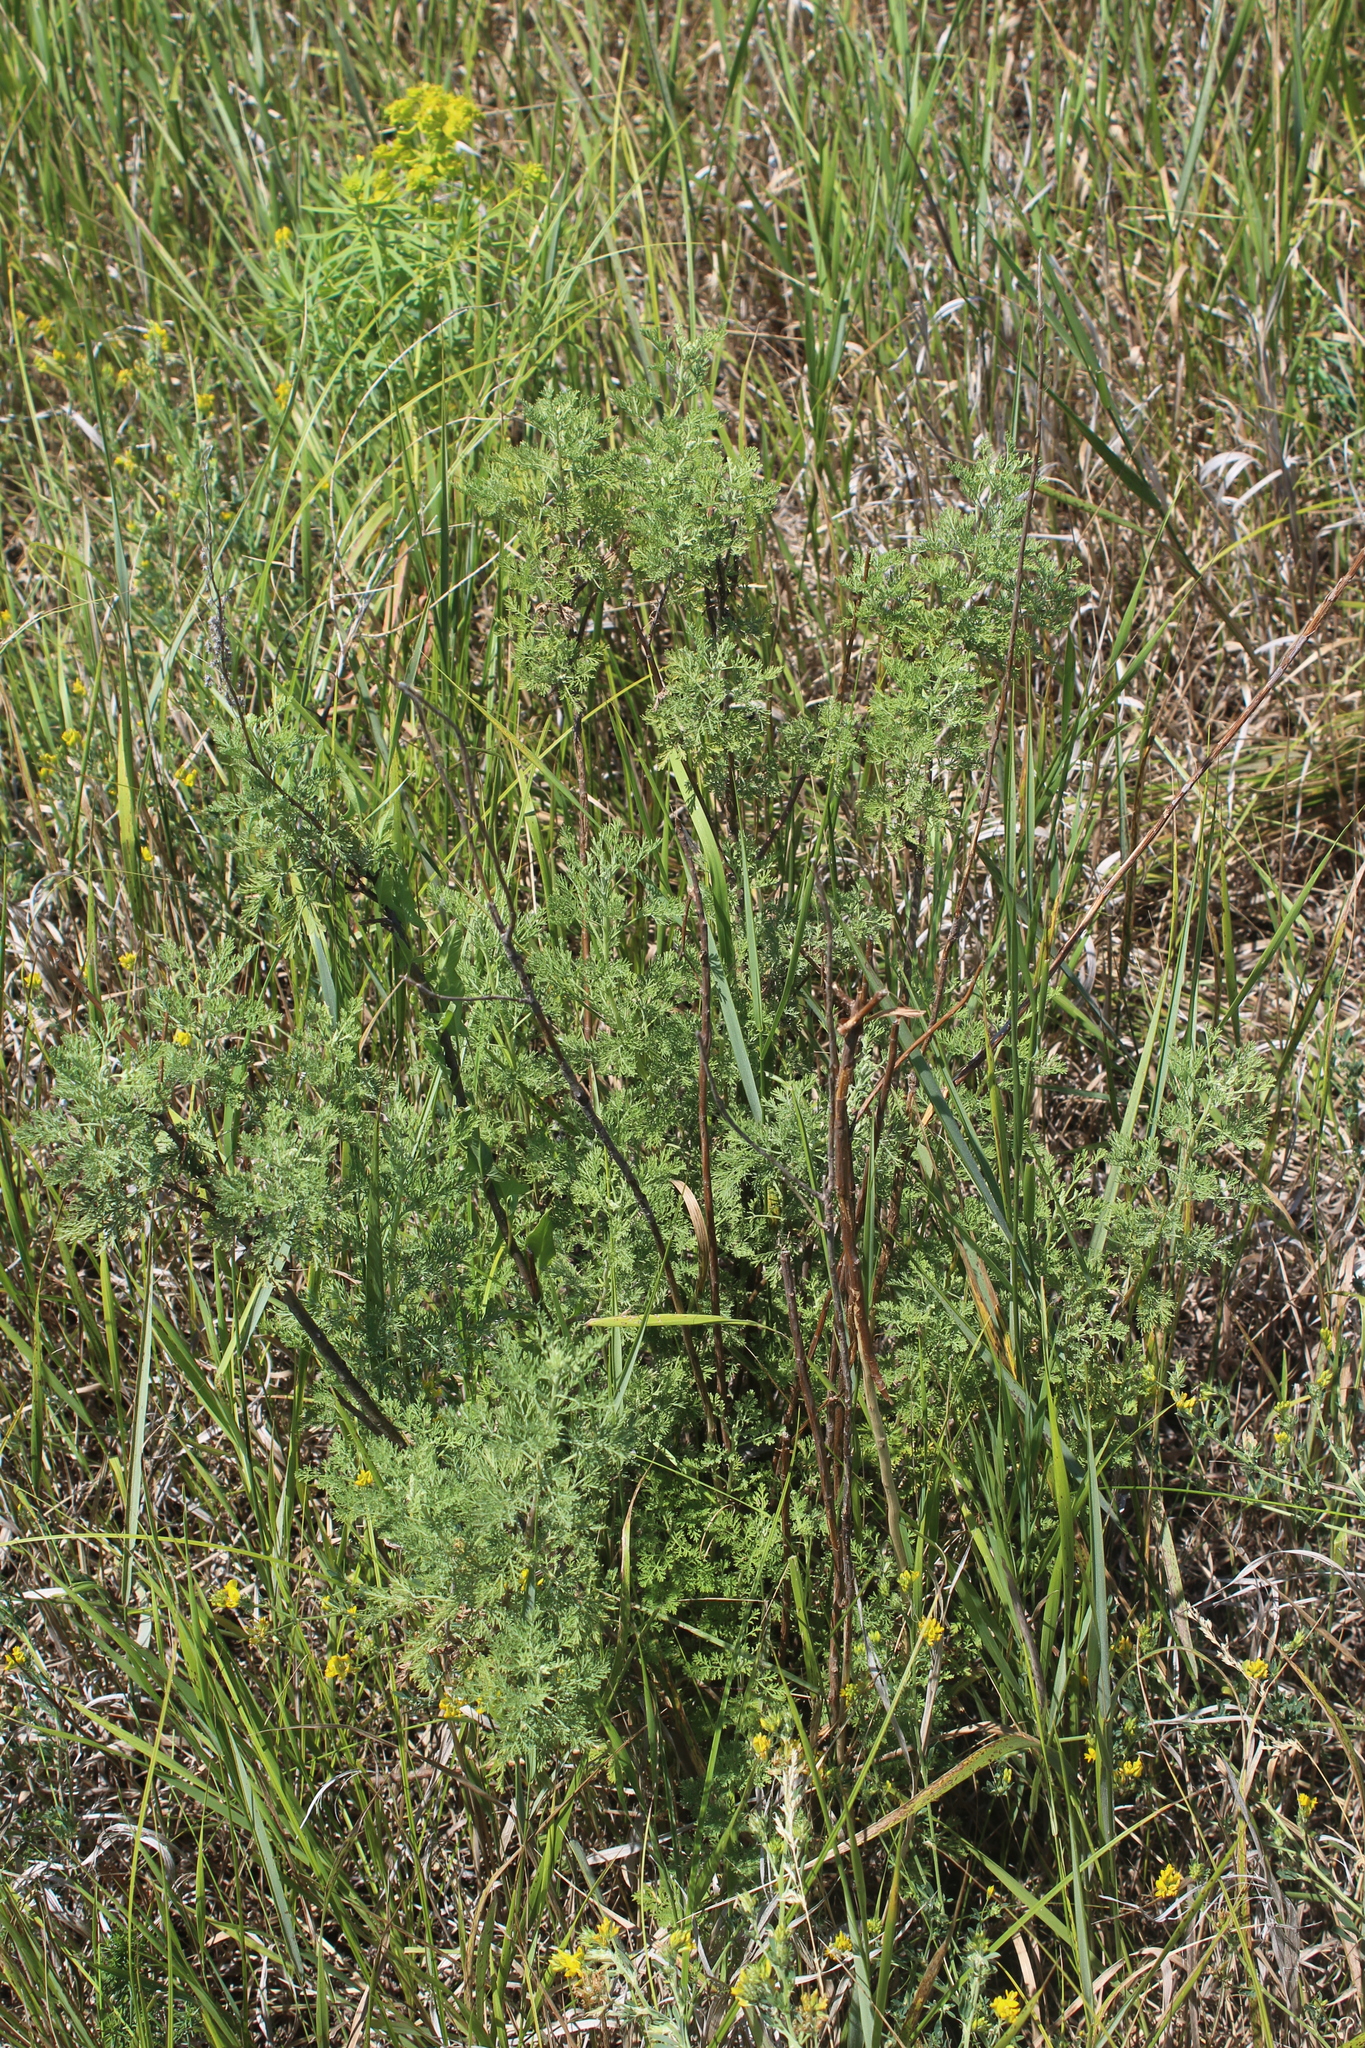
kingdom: Plantae
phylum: Tracheophyta
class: Magnoliopsida
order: Asterales
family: Asteraceae
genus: Artemisia
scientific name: Artemisia abrotanum
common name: Southernwood
